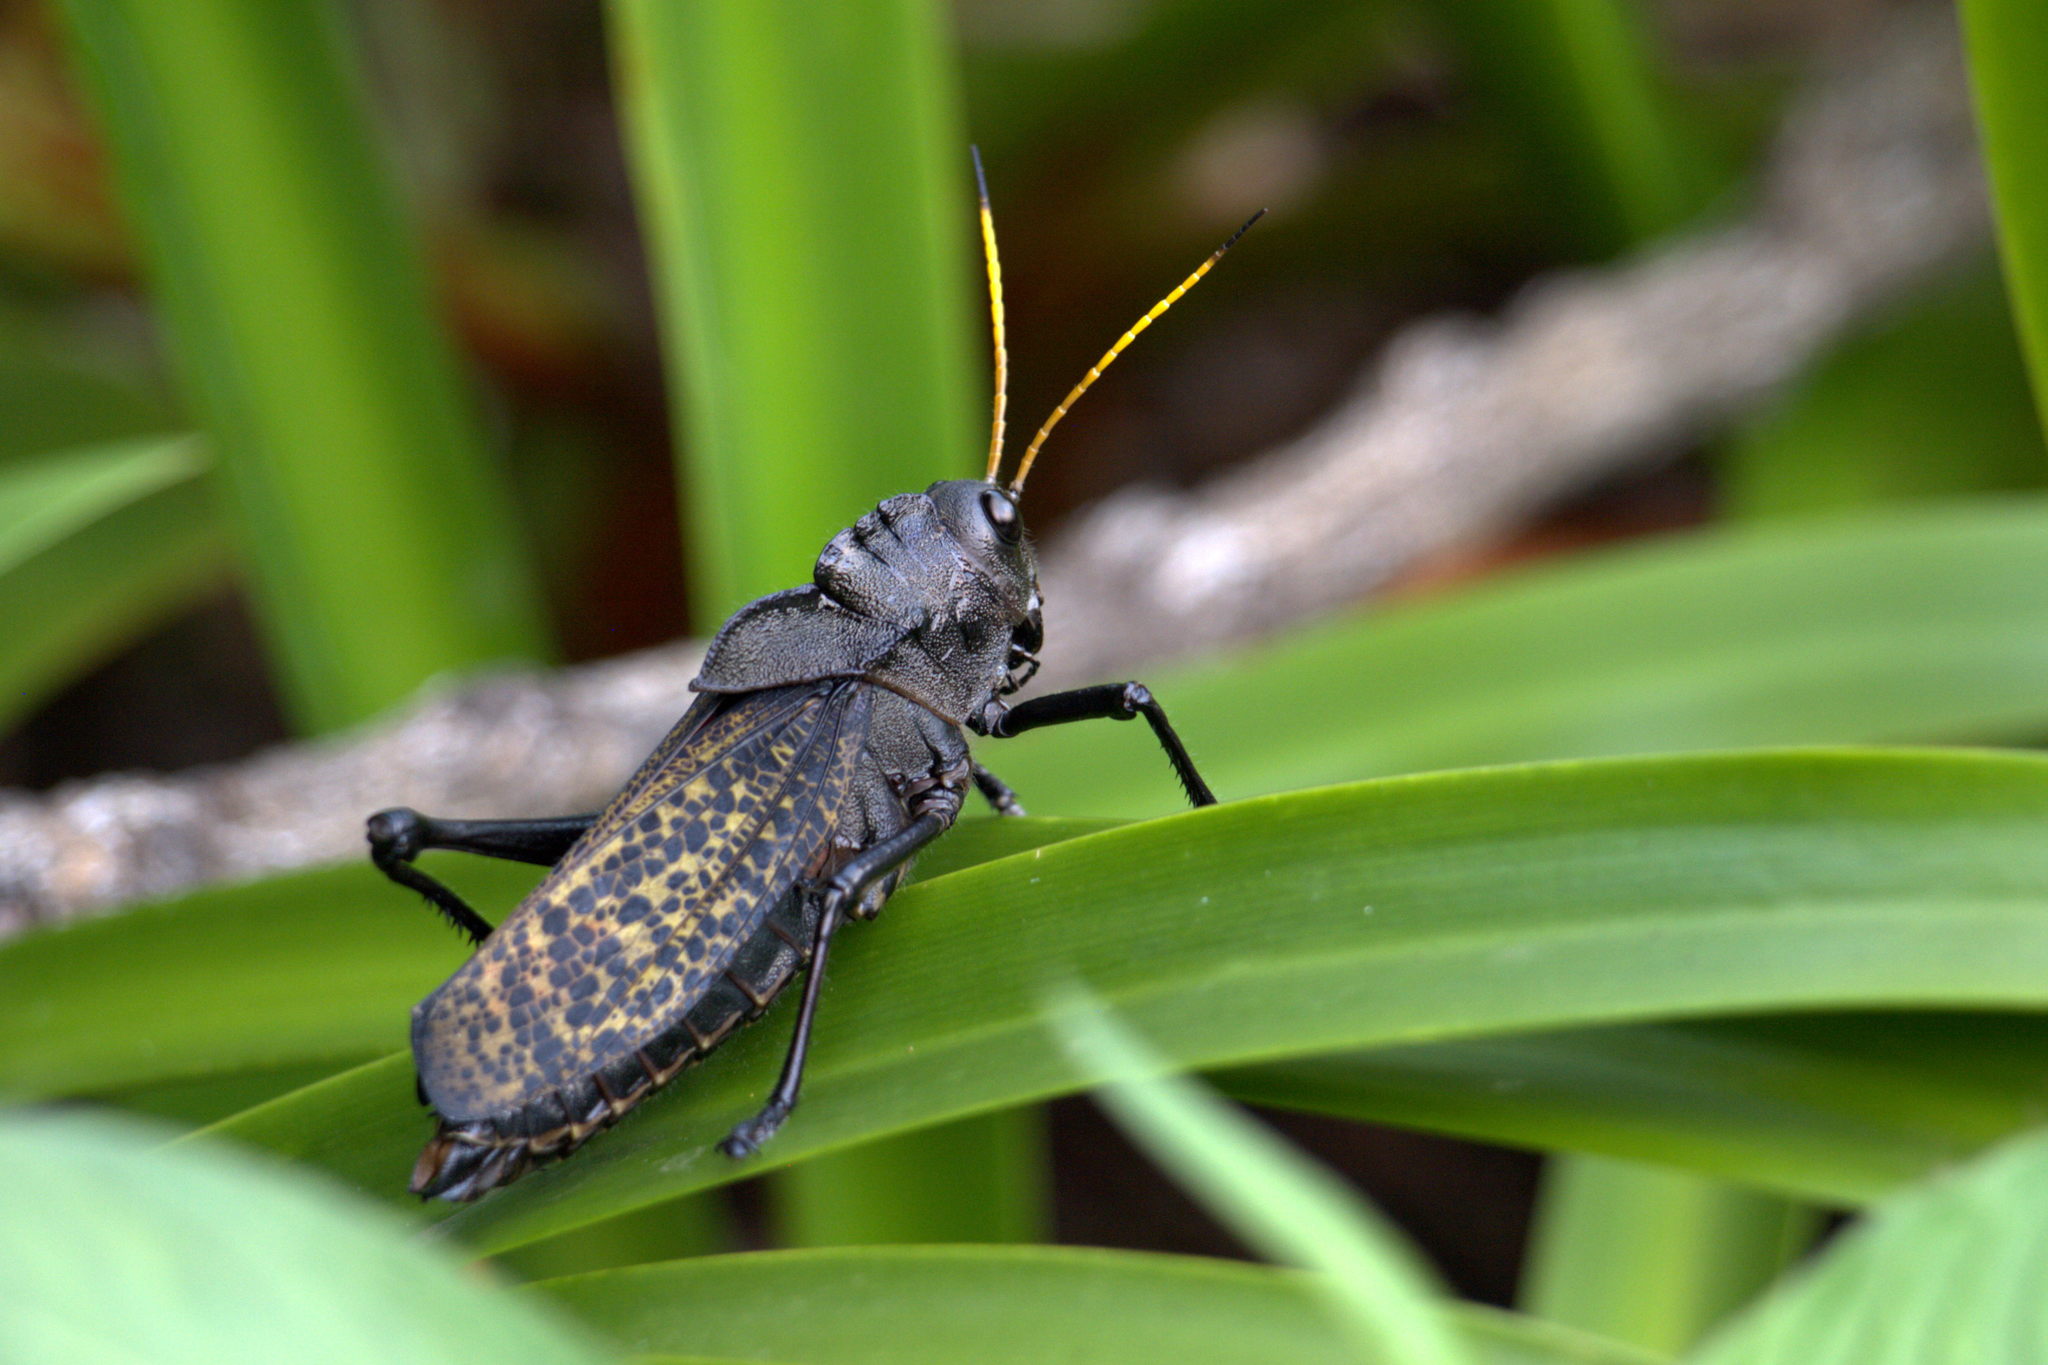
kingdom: Animalia
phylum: Arthropoda
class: Insecta
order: Orthoptera
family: Romaleidae
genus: Taeniopoda
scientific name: Taeniopoda centurio
